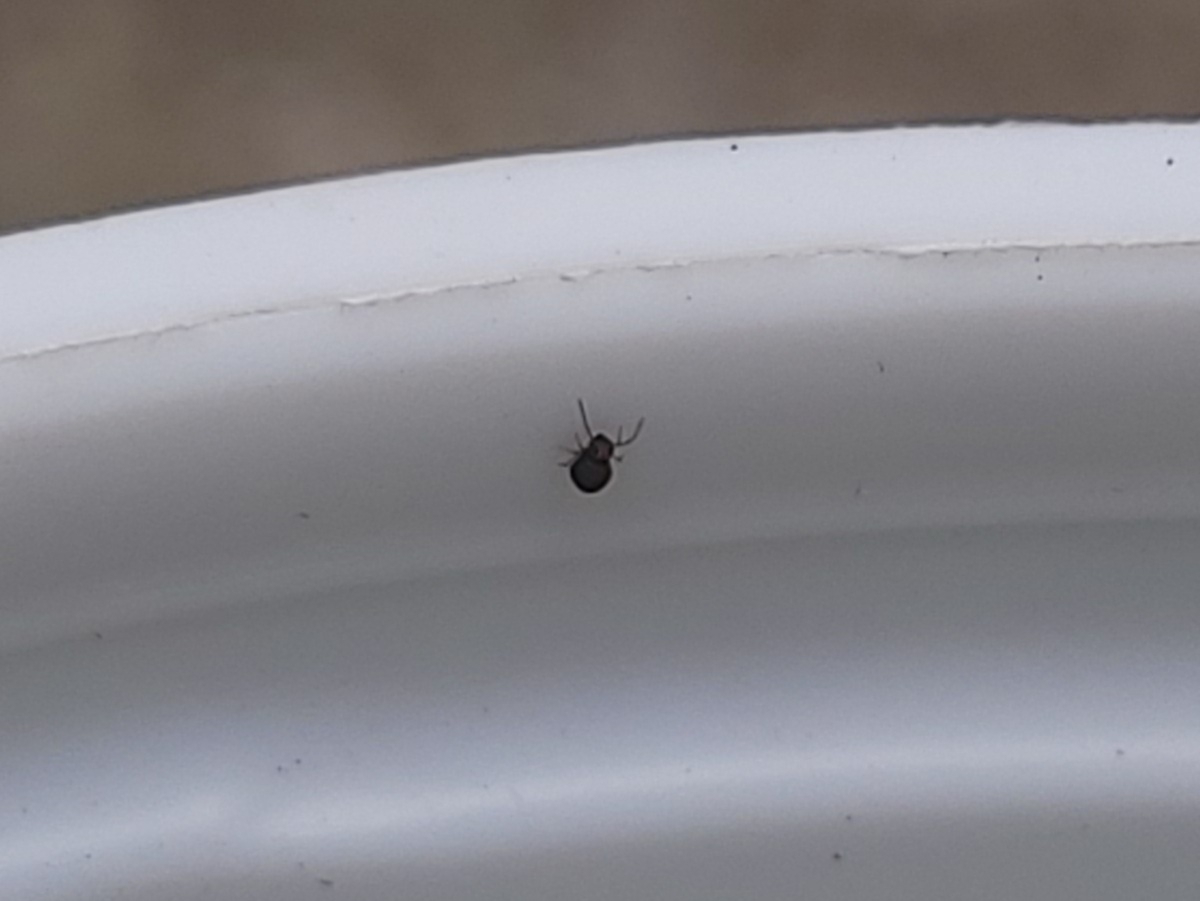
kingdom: Animalia
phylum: Arthropoda
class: Collembola
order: Symphypleona
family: Bourletiellidae
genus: Bourletiella
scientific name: Bourletiella hortensis
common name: Garden springtail
